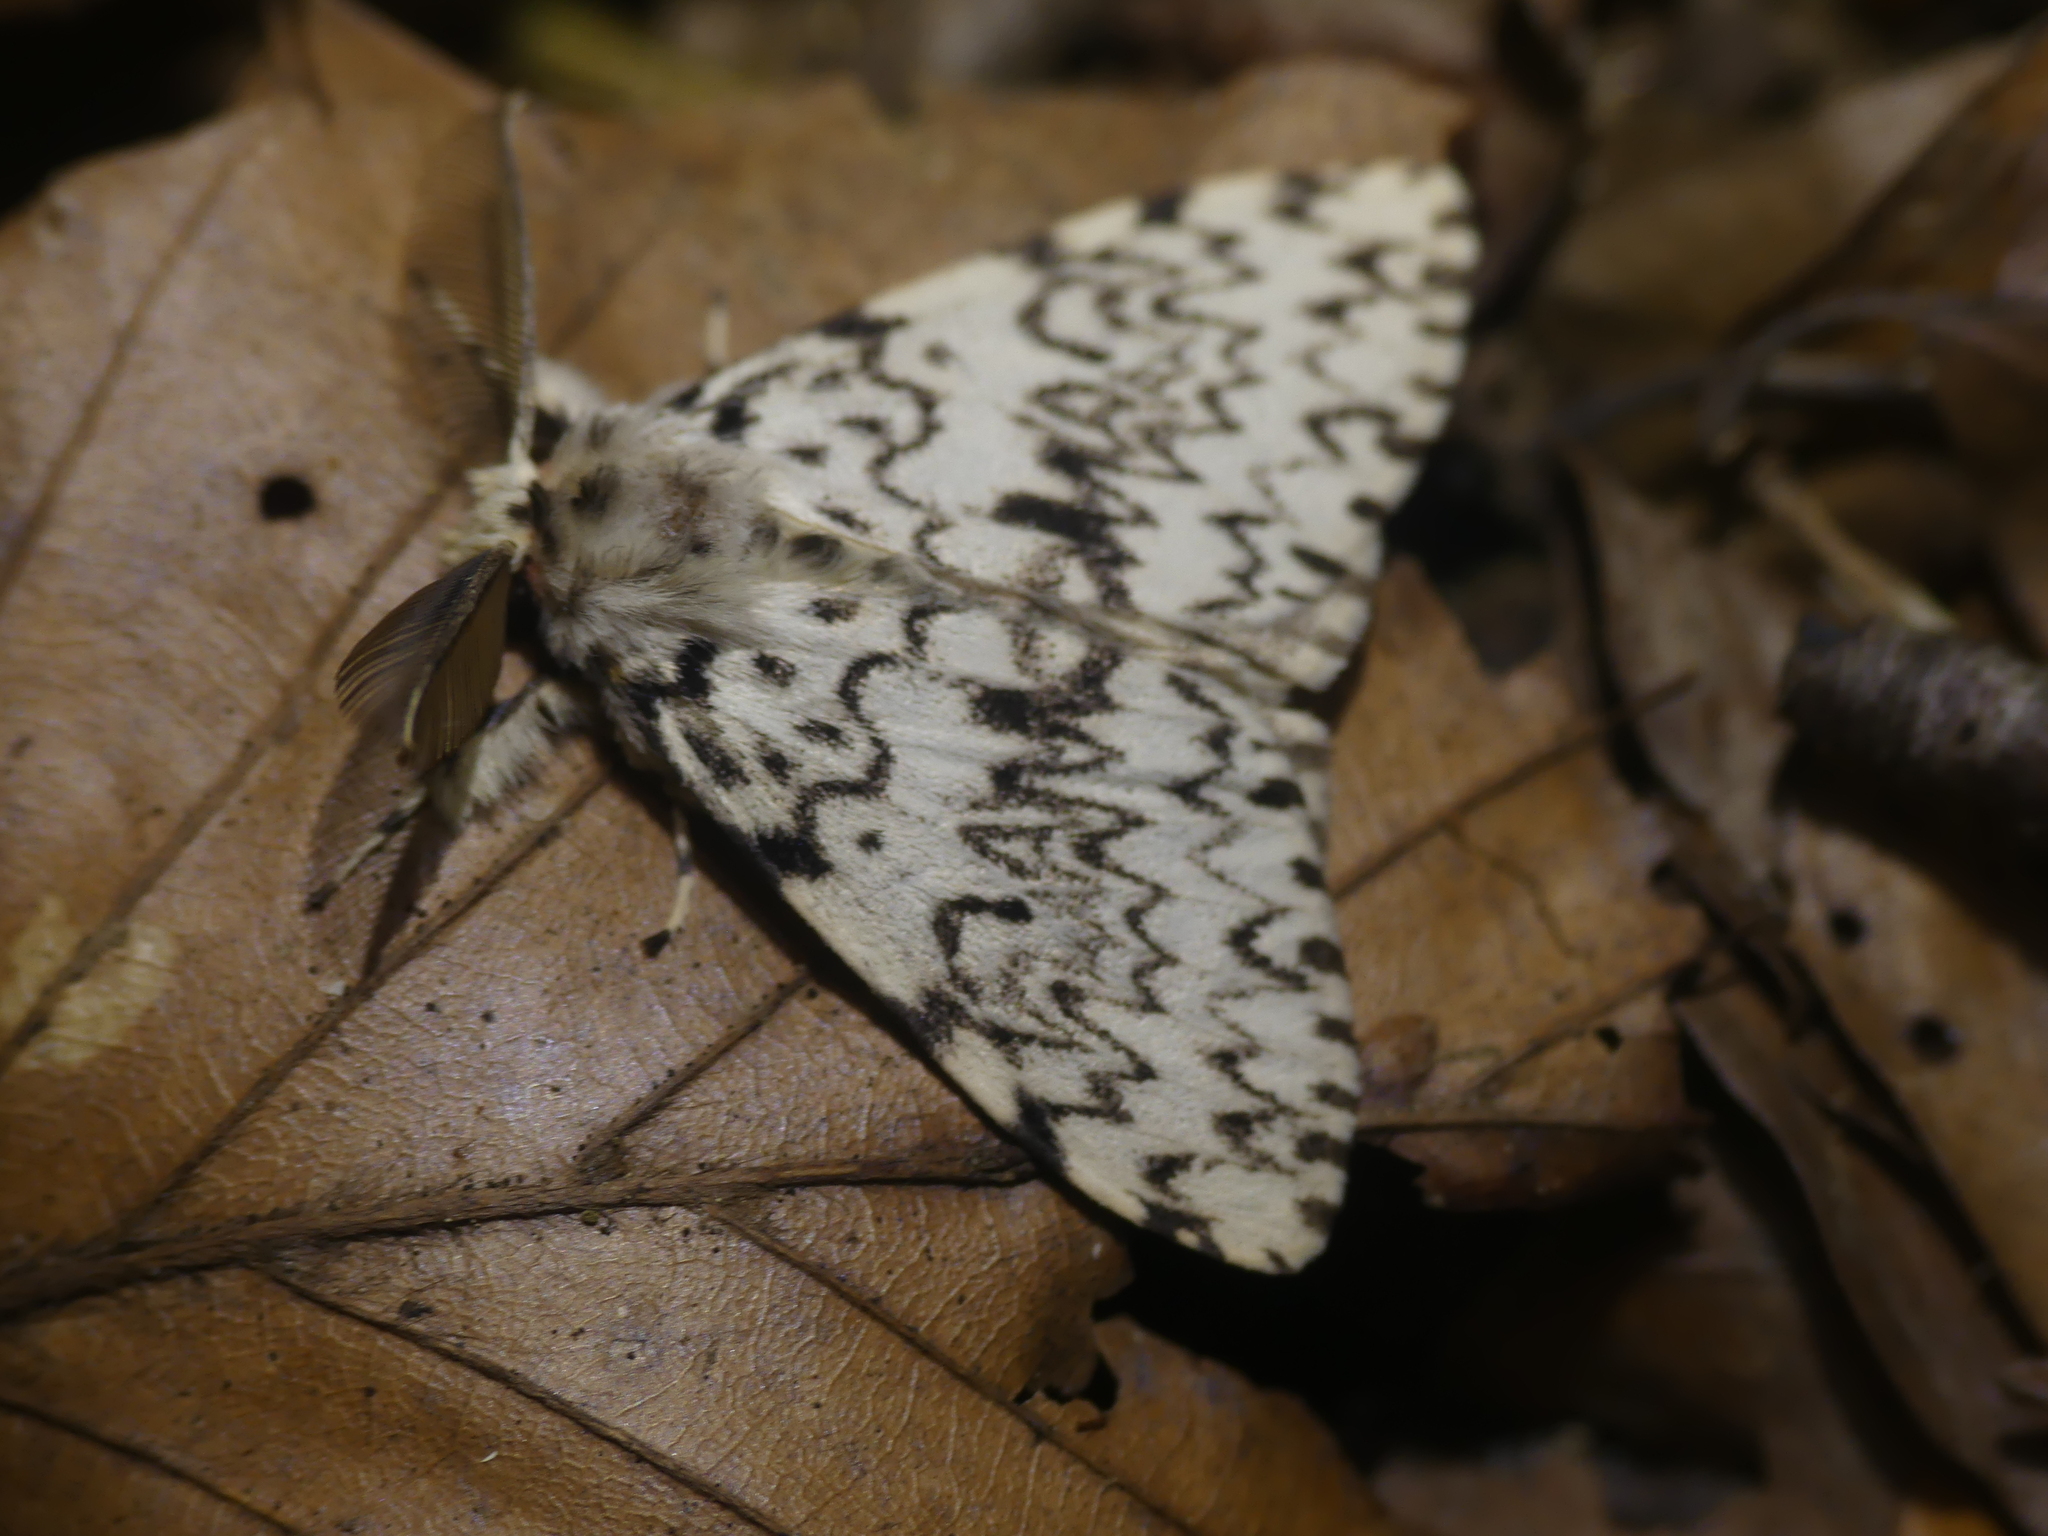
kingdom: Animalia
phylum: Arthropoda
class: Insecta
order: Lepidoptera
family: Erebidae
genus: Lymantria
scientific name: Lymantria monacha
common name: Black arches
